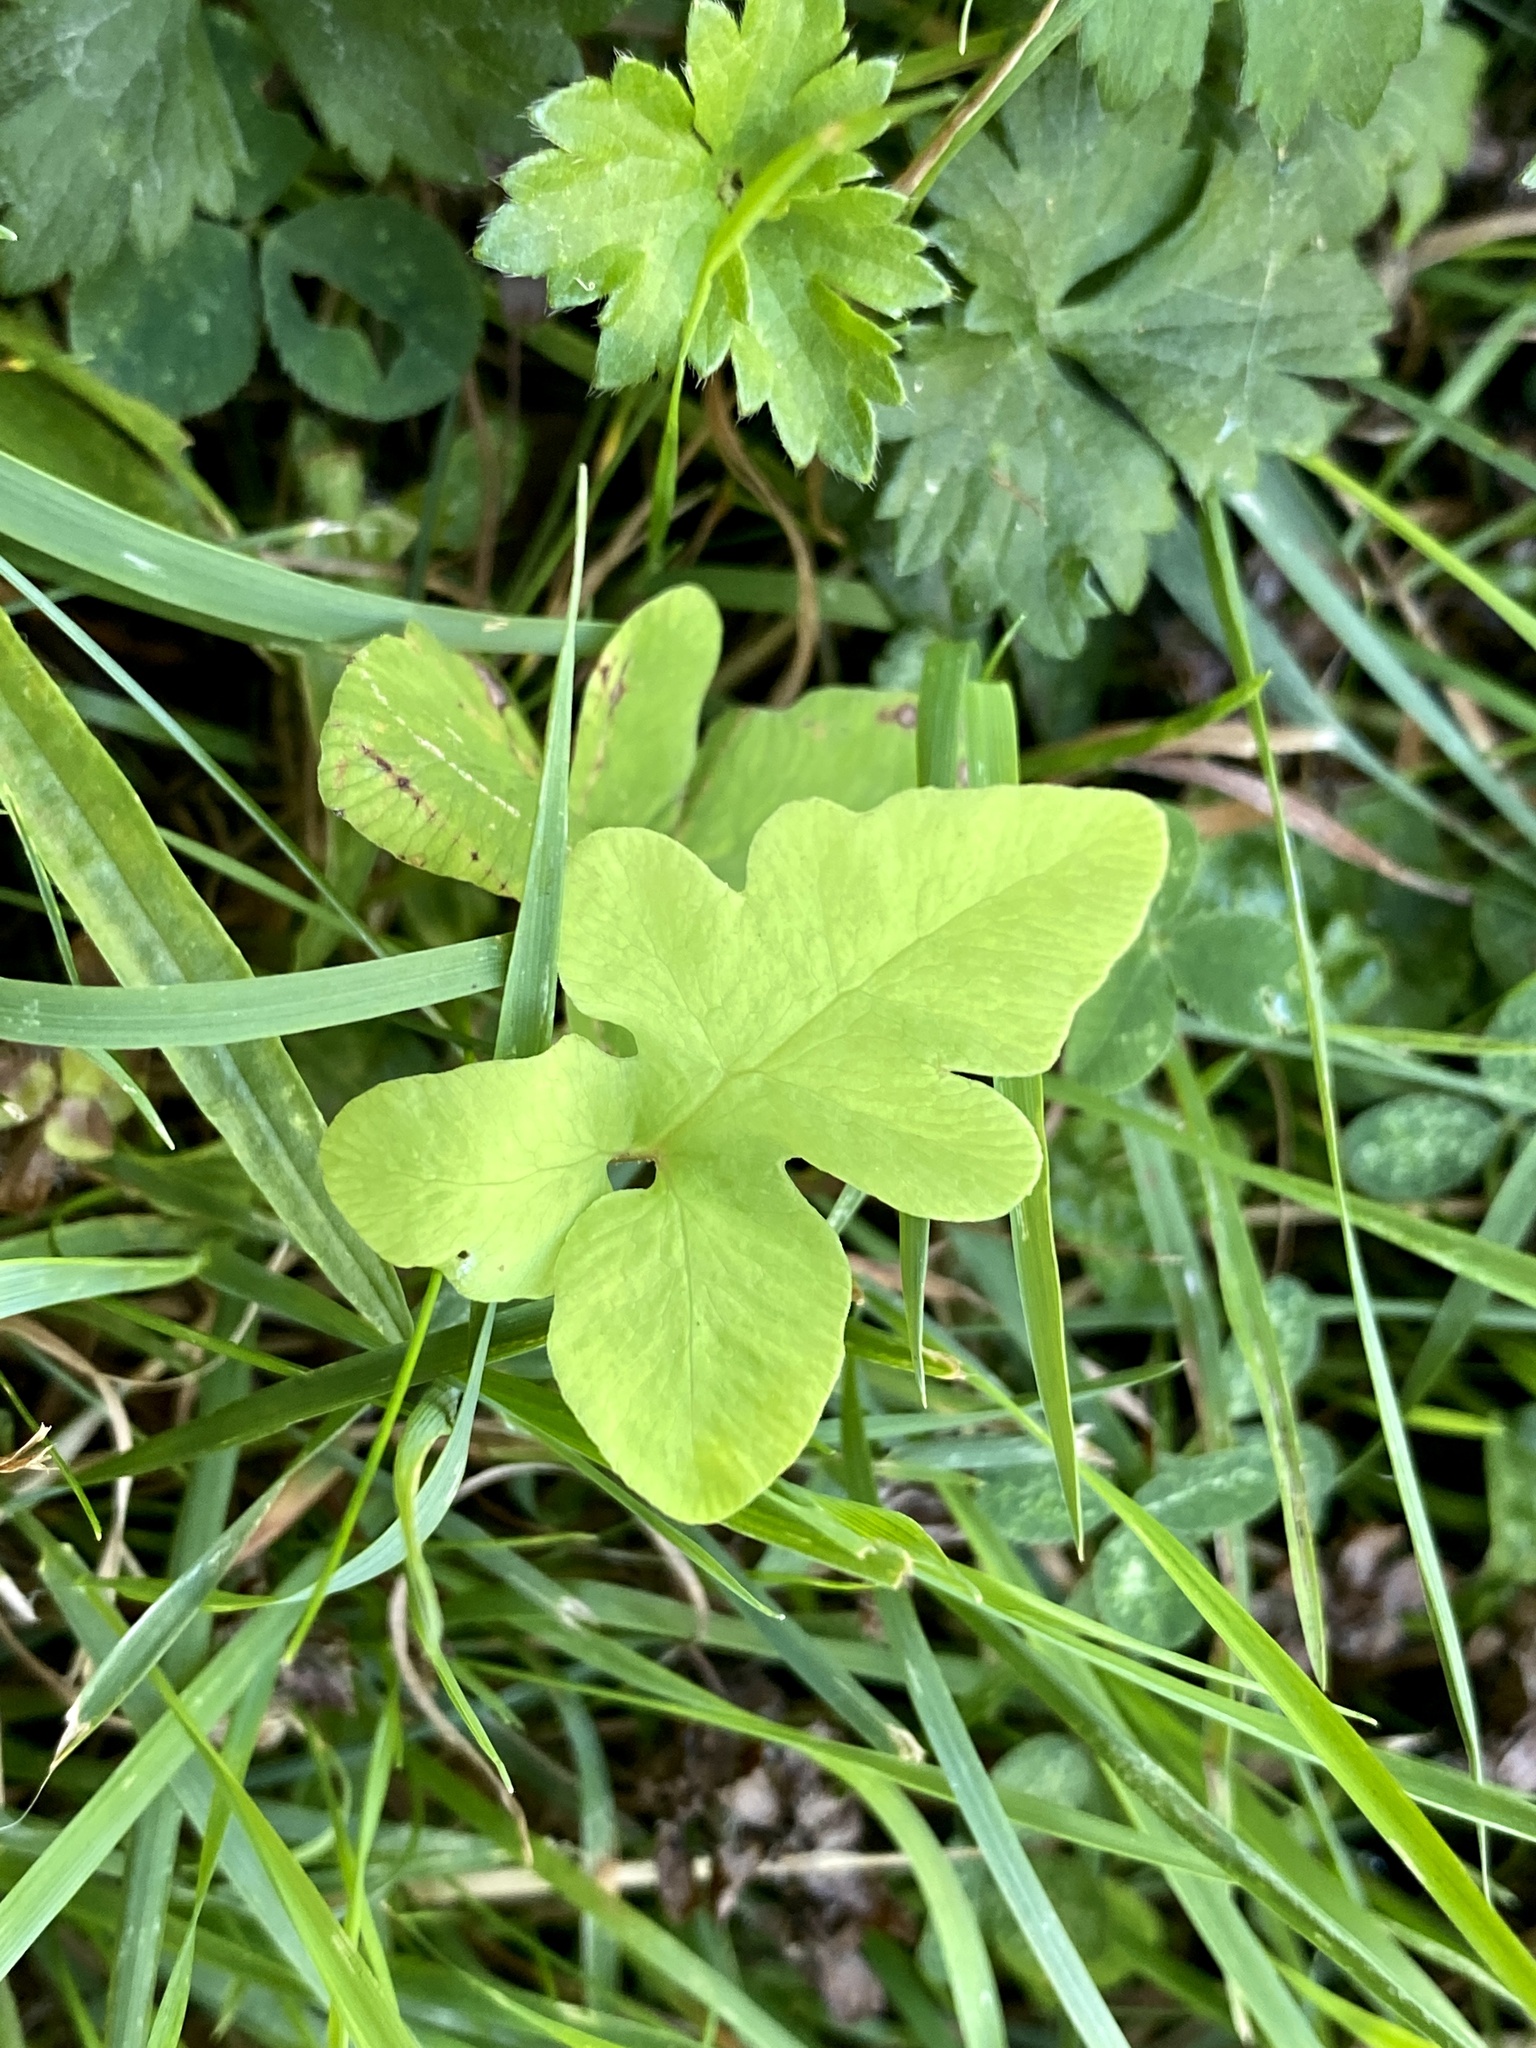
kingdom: Plantae
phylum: Tracheophyta
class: Polypodiopsida
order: Polypodiales
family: Onocleaceae
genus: Onoclea
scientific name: Onoclea sensibilis
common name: Sensitive fern
